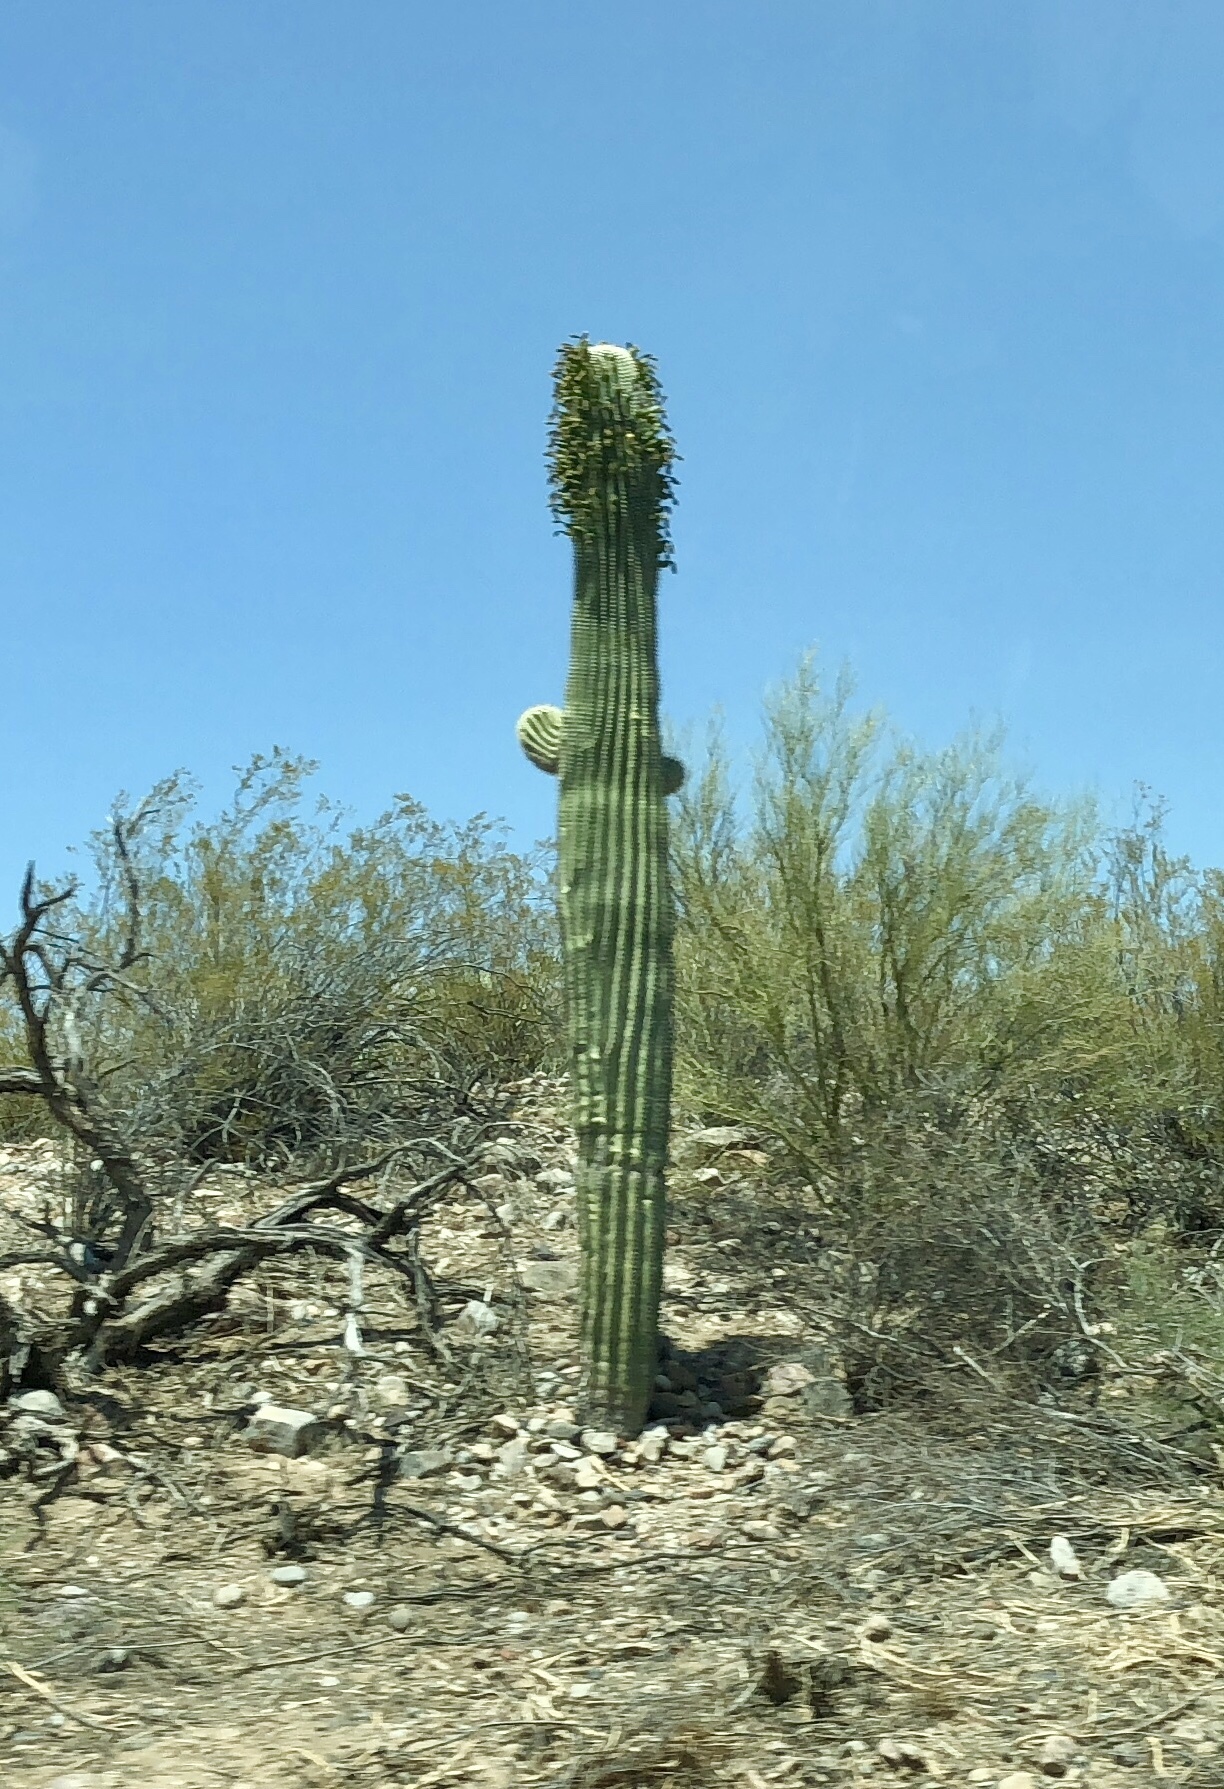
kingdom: Plantae
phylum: Tracheophyta
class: Magnoliopsida
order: Caryophyllales
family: Cactaceae
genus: Carnegiea
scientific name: Carnegiea gigantea
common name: Saguaro
